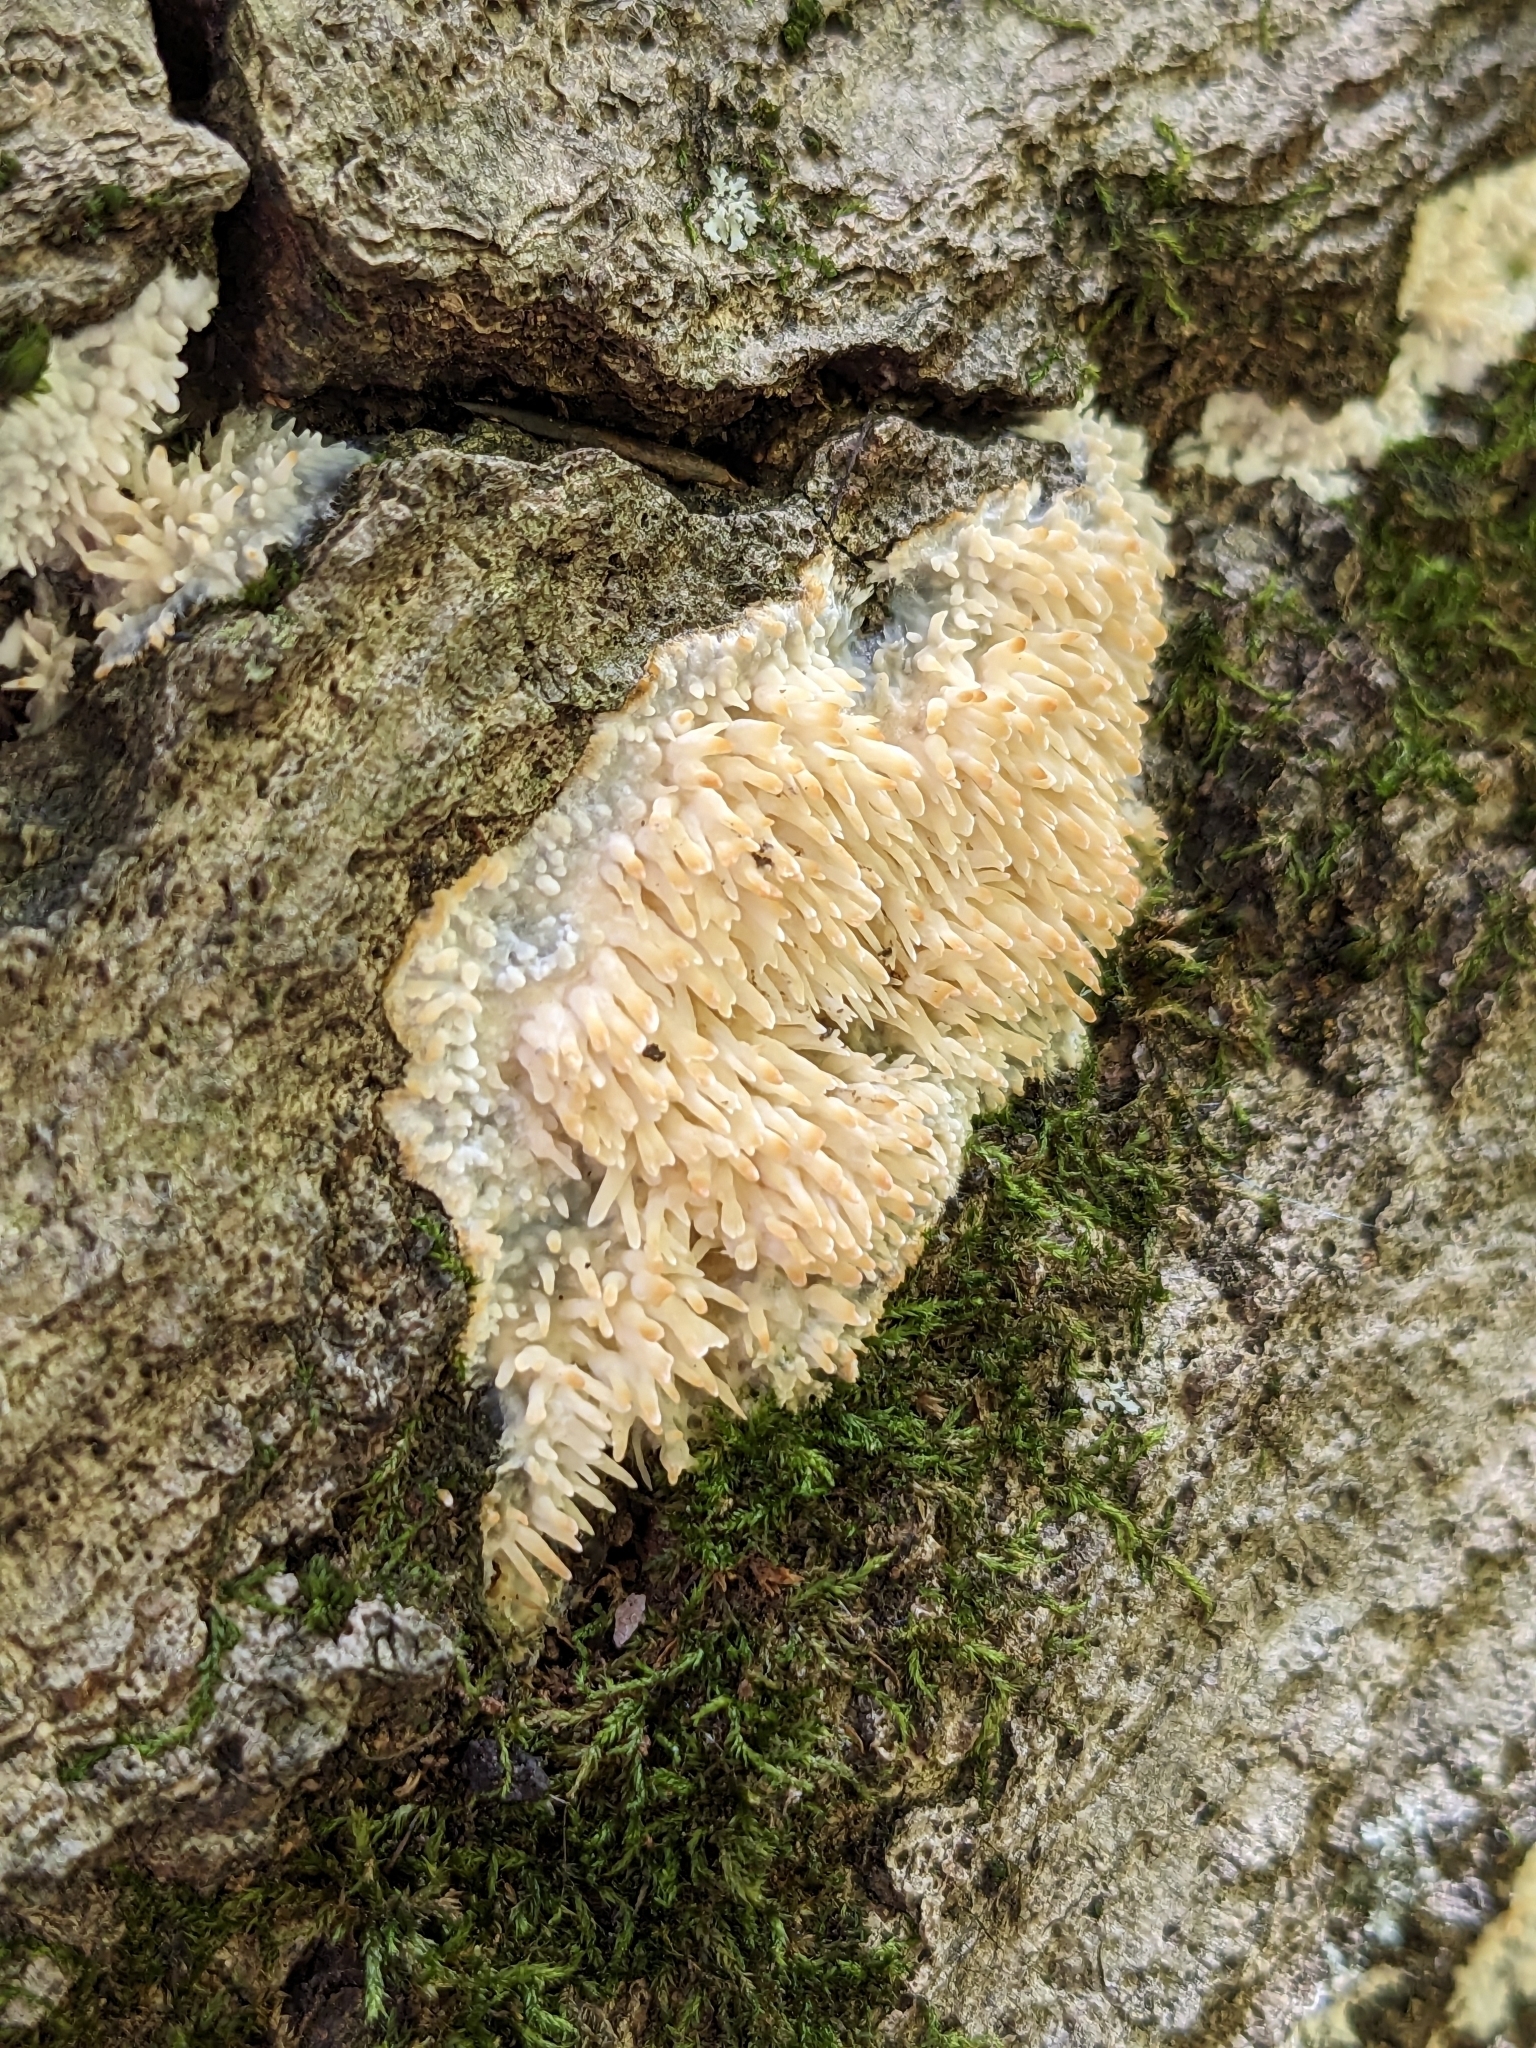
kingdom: Fungi
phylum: Basidiomycota
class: Agaricomycetes
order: Agaricales
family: Radulomycetaceae
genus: Radulomyces
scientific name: Radulomyces copelandii
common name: Asian beauty
